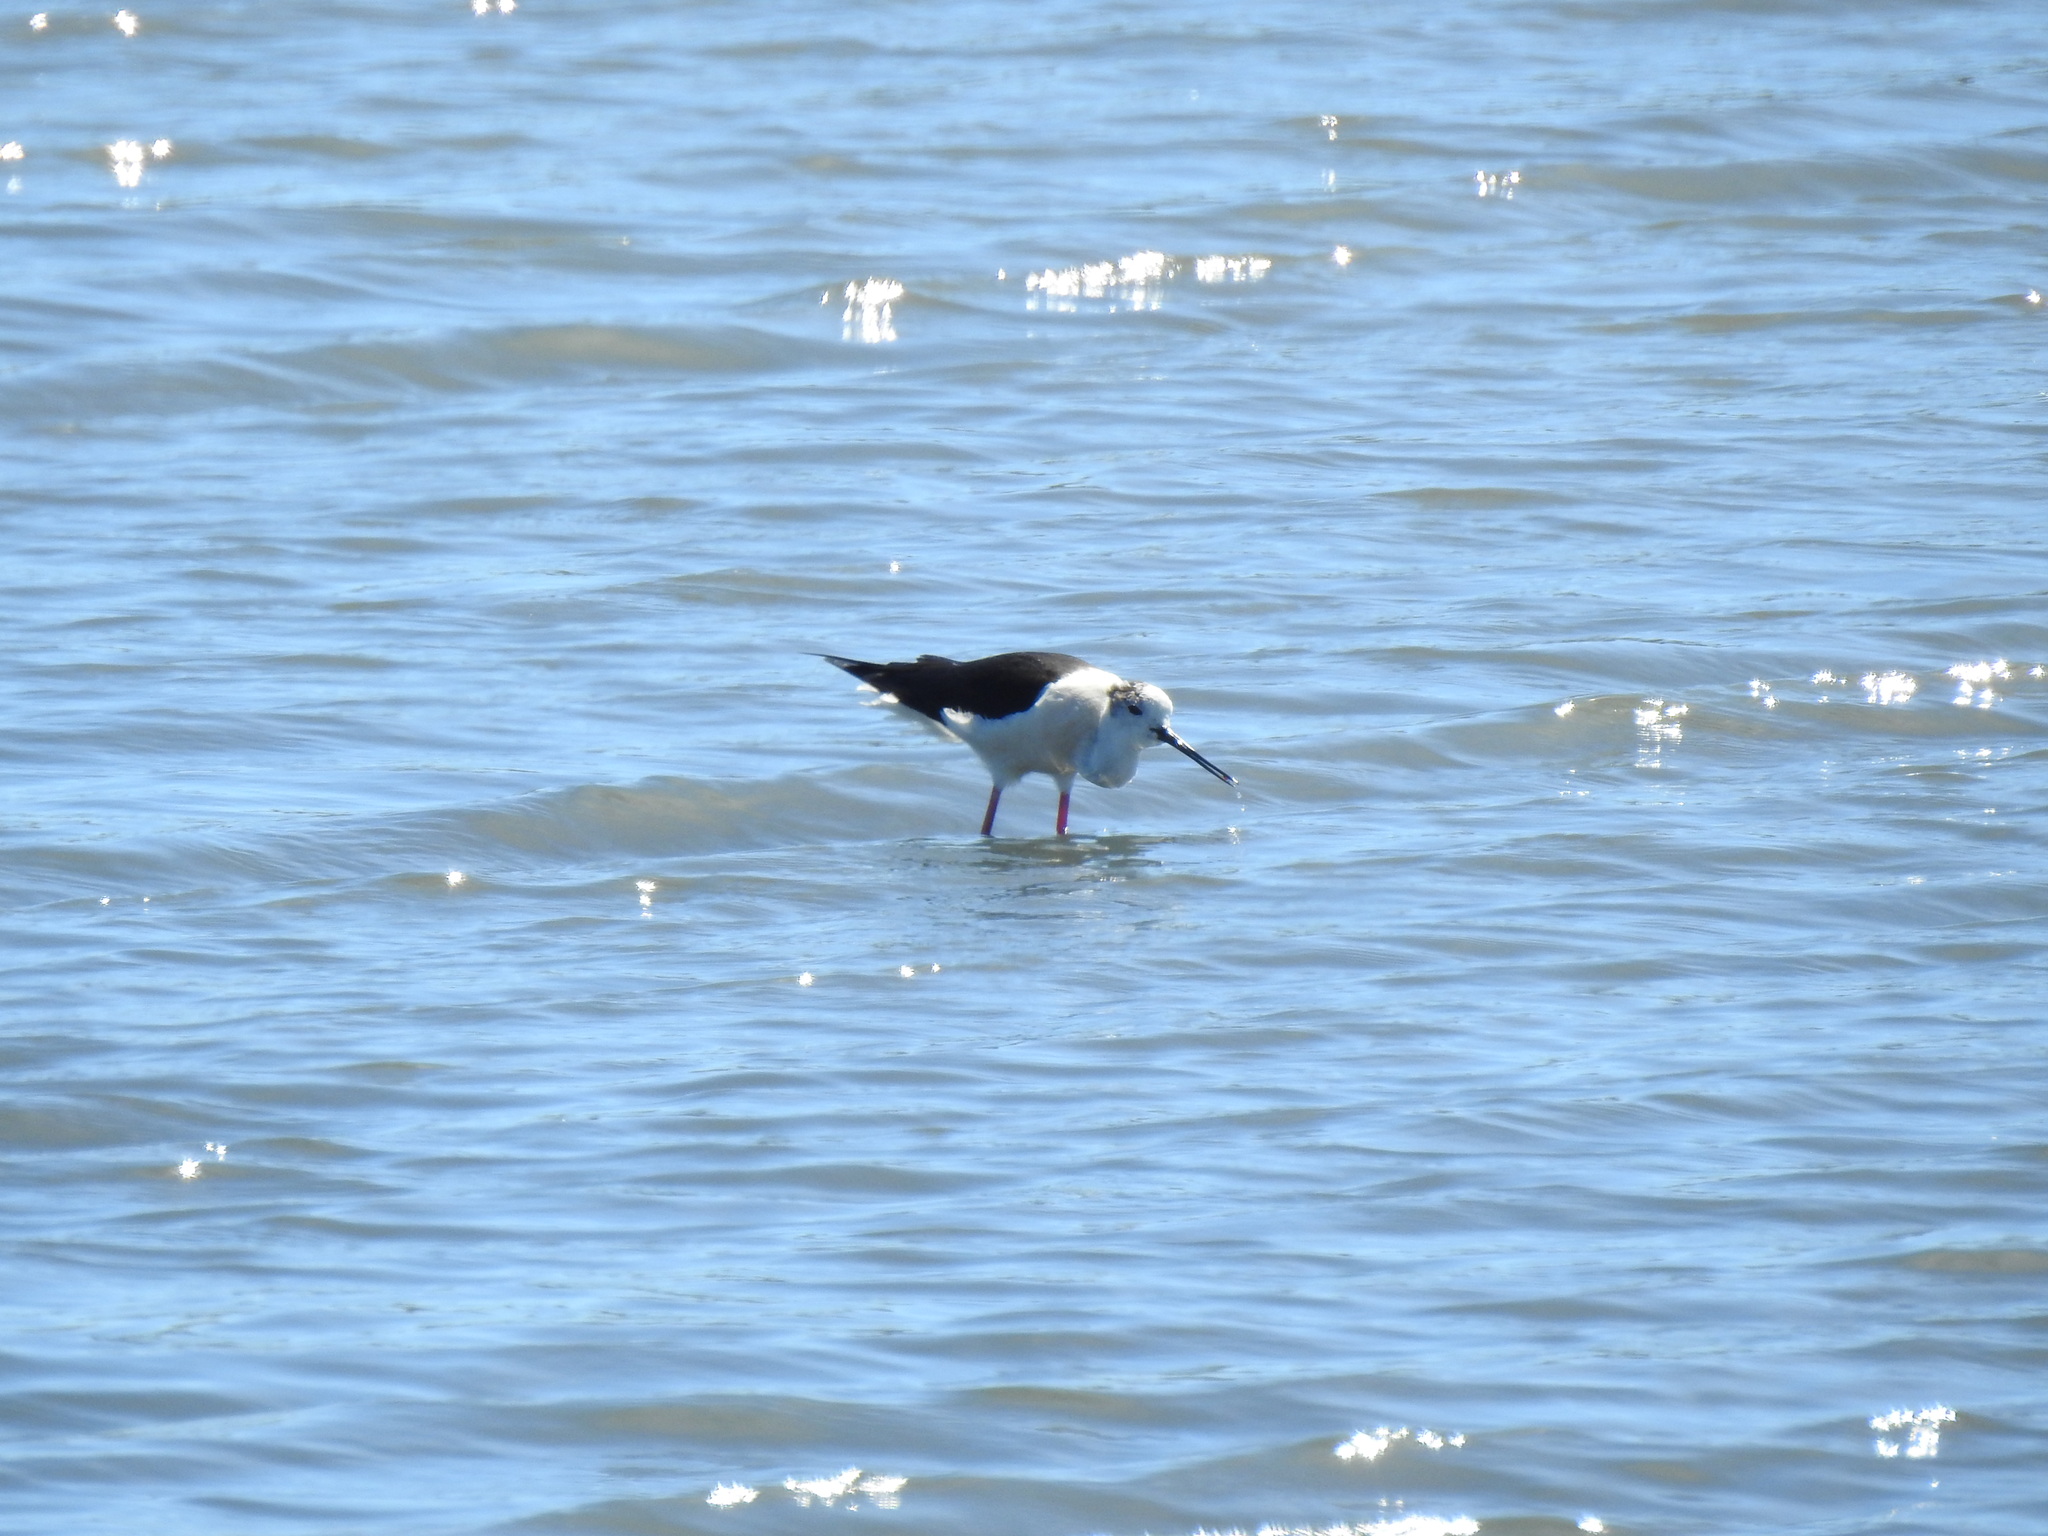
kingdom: Animalia
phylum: Chordata
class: Aves
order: Charadriiformes
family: Recurvirostridae
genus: Himantopus
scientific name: Himantopus himantopus
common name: Black-winged stilt
